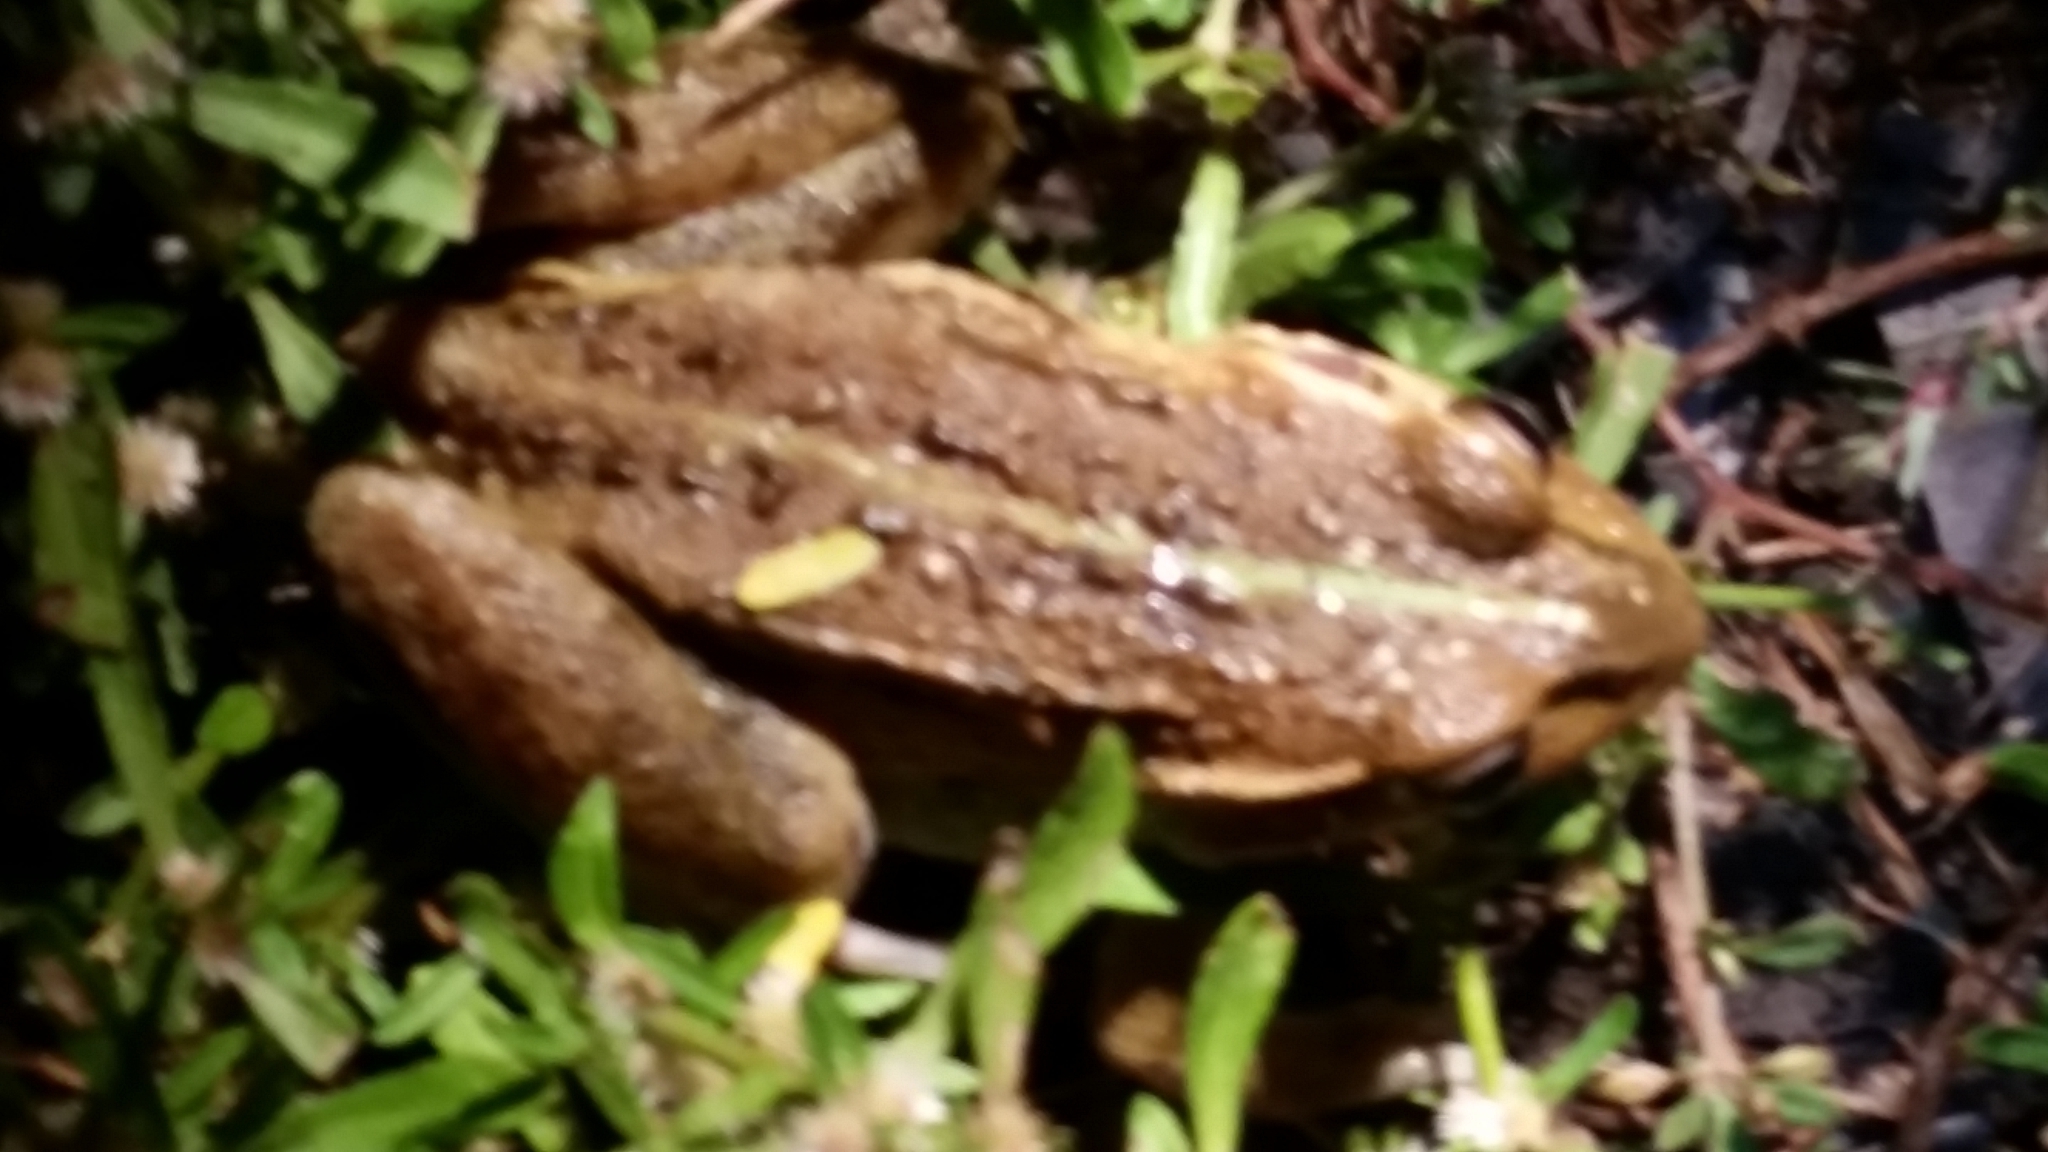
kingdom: Animalia
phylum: Chordata
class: Amphibia
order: Anura
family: Pelodryadidae
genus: Ranoidea
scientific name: Ranoidea alboguttata
